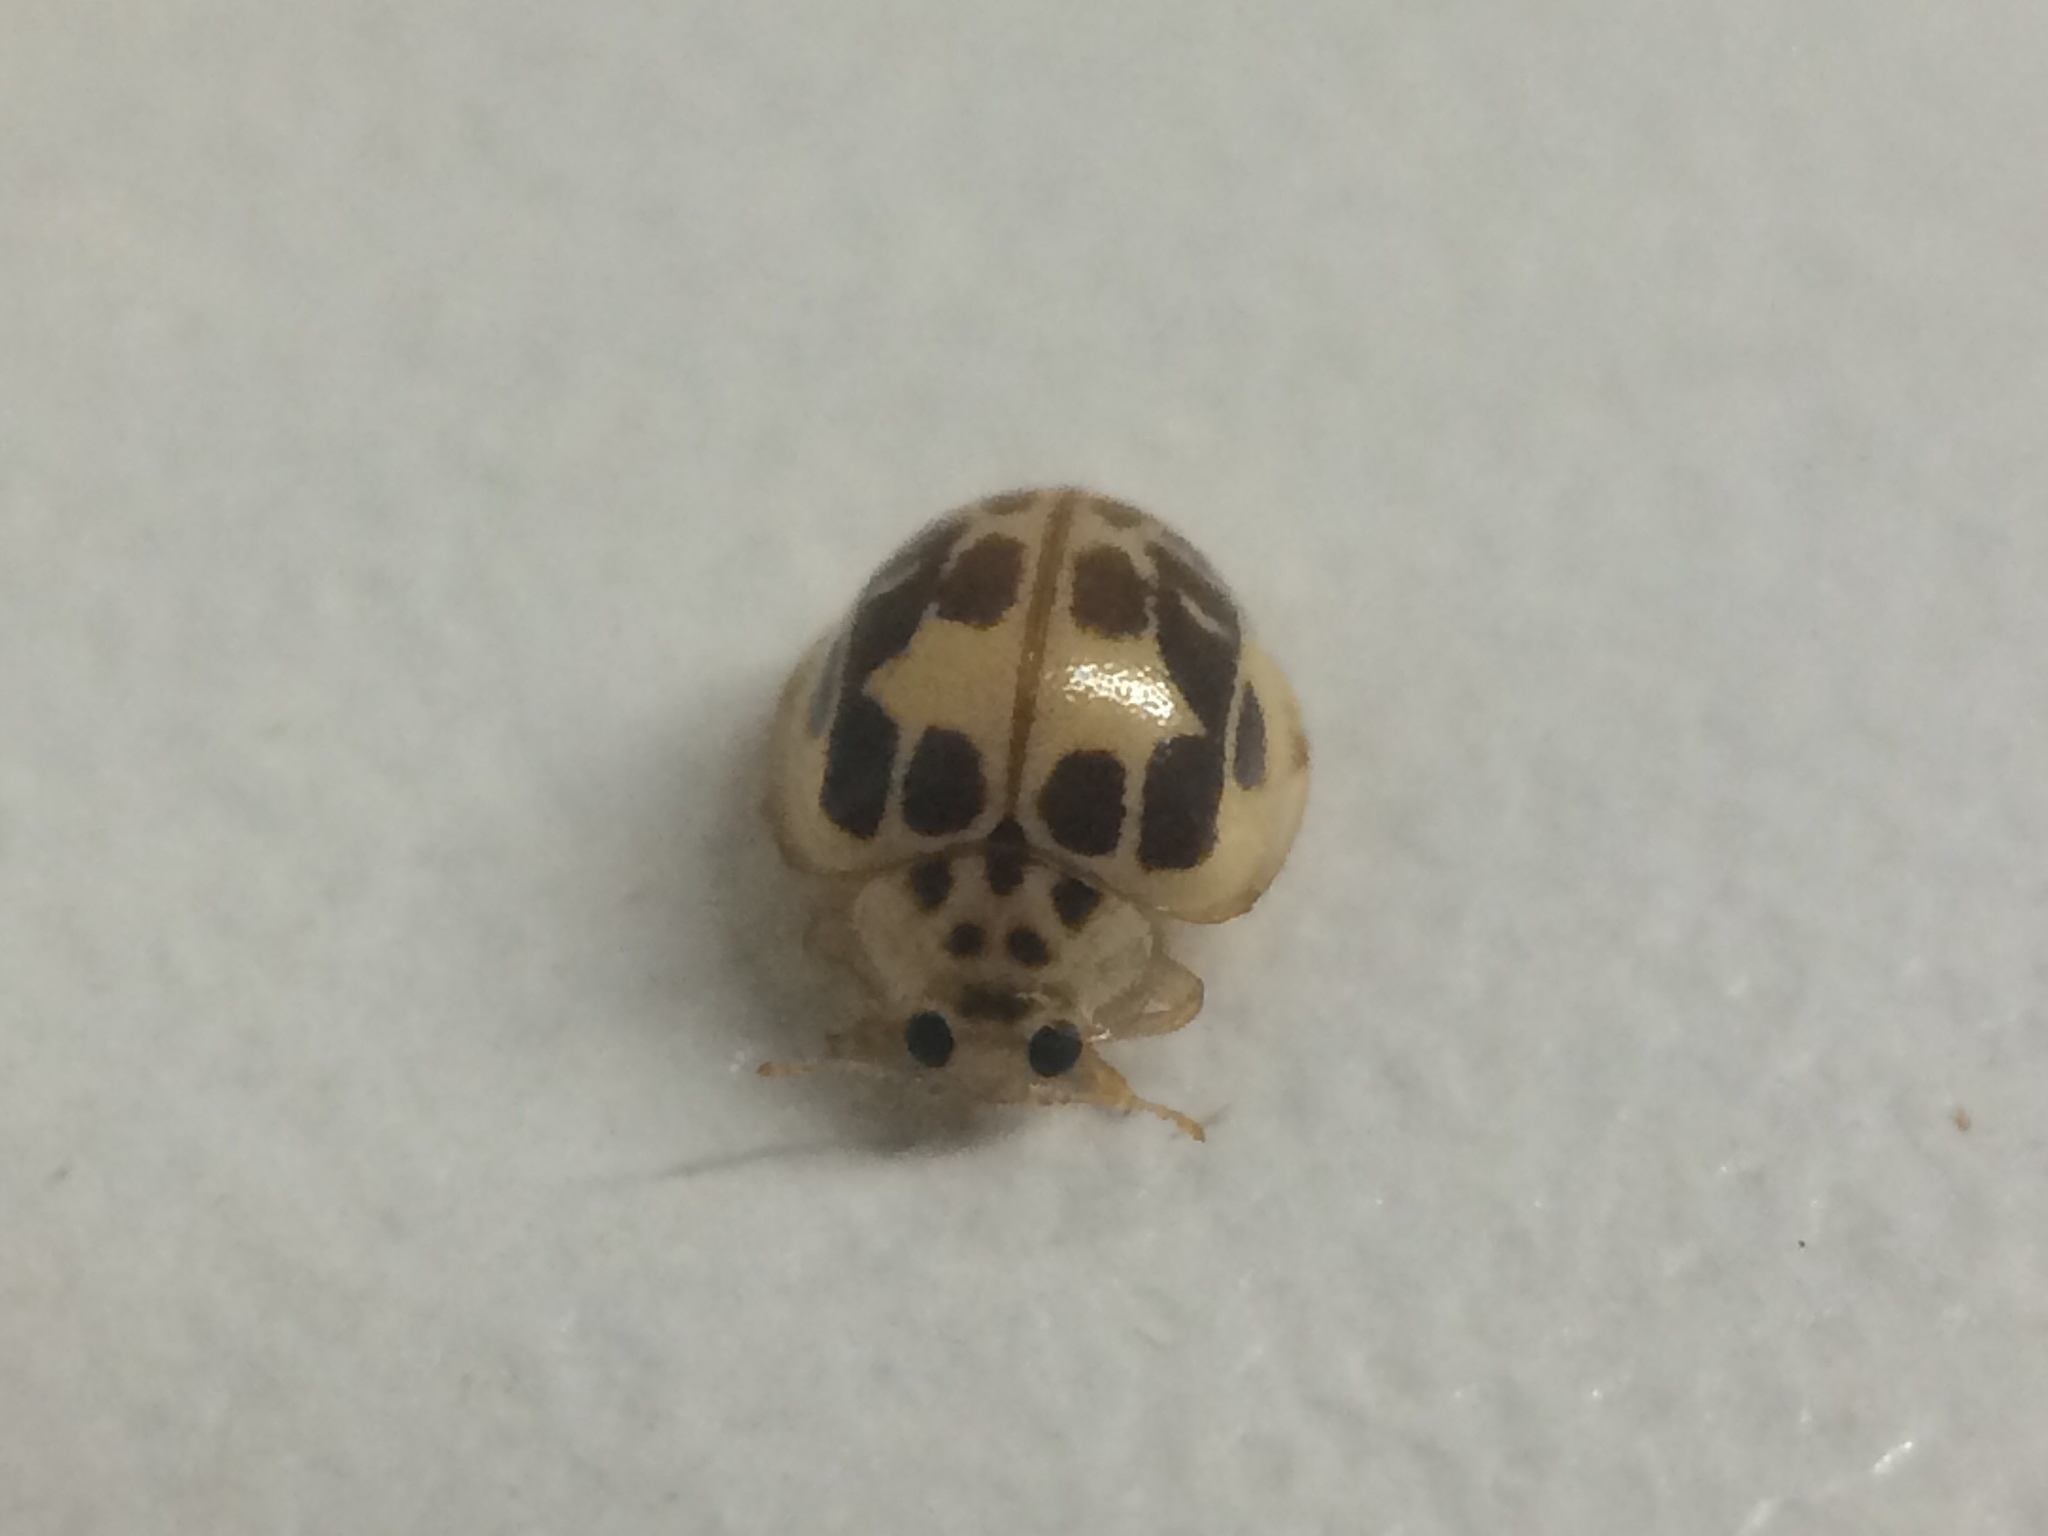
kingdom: Animalia
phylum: Arthropoda
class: Insecta
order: Coleoptera
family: Coccinellidae
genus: Psyllobora
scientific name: Psyllobora confluens
